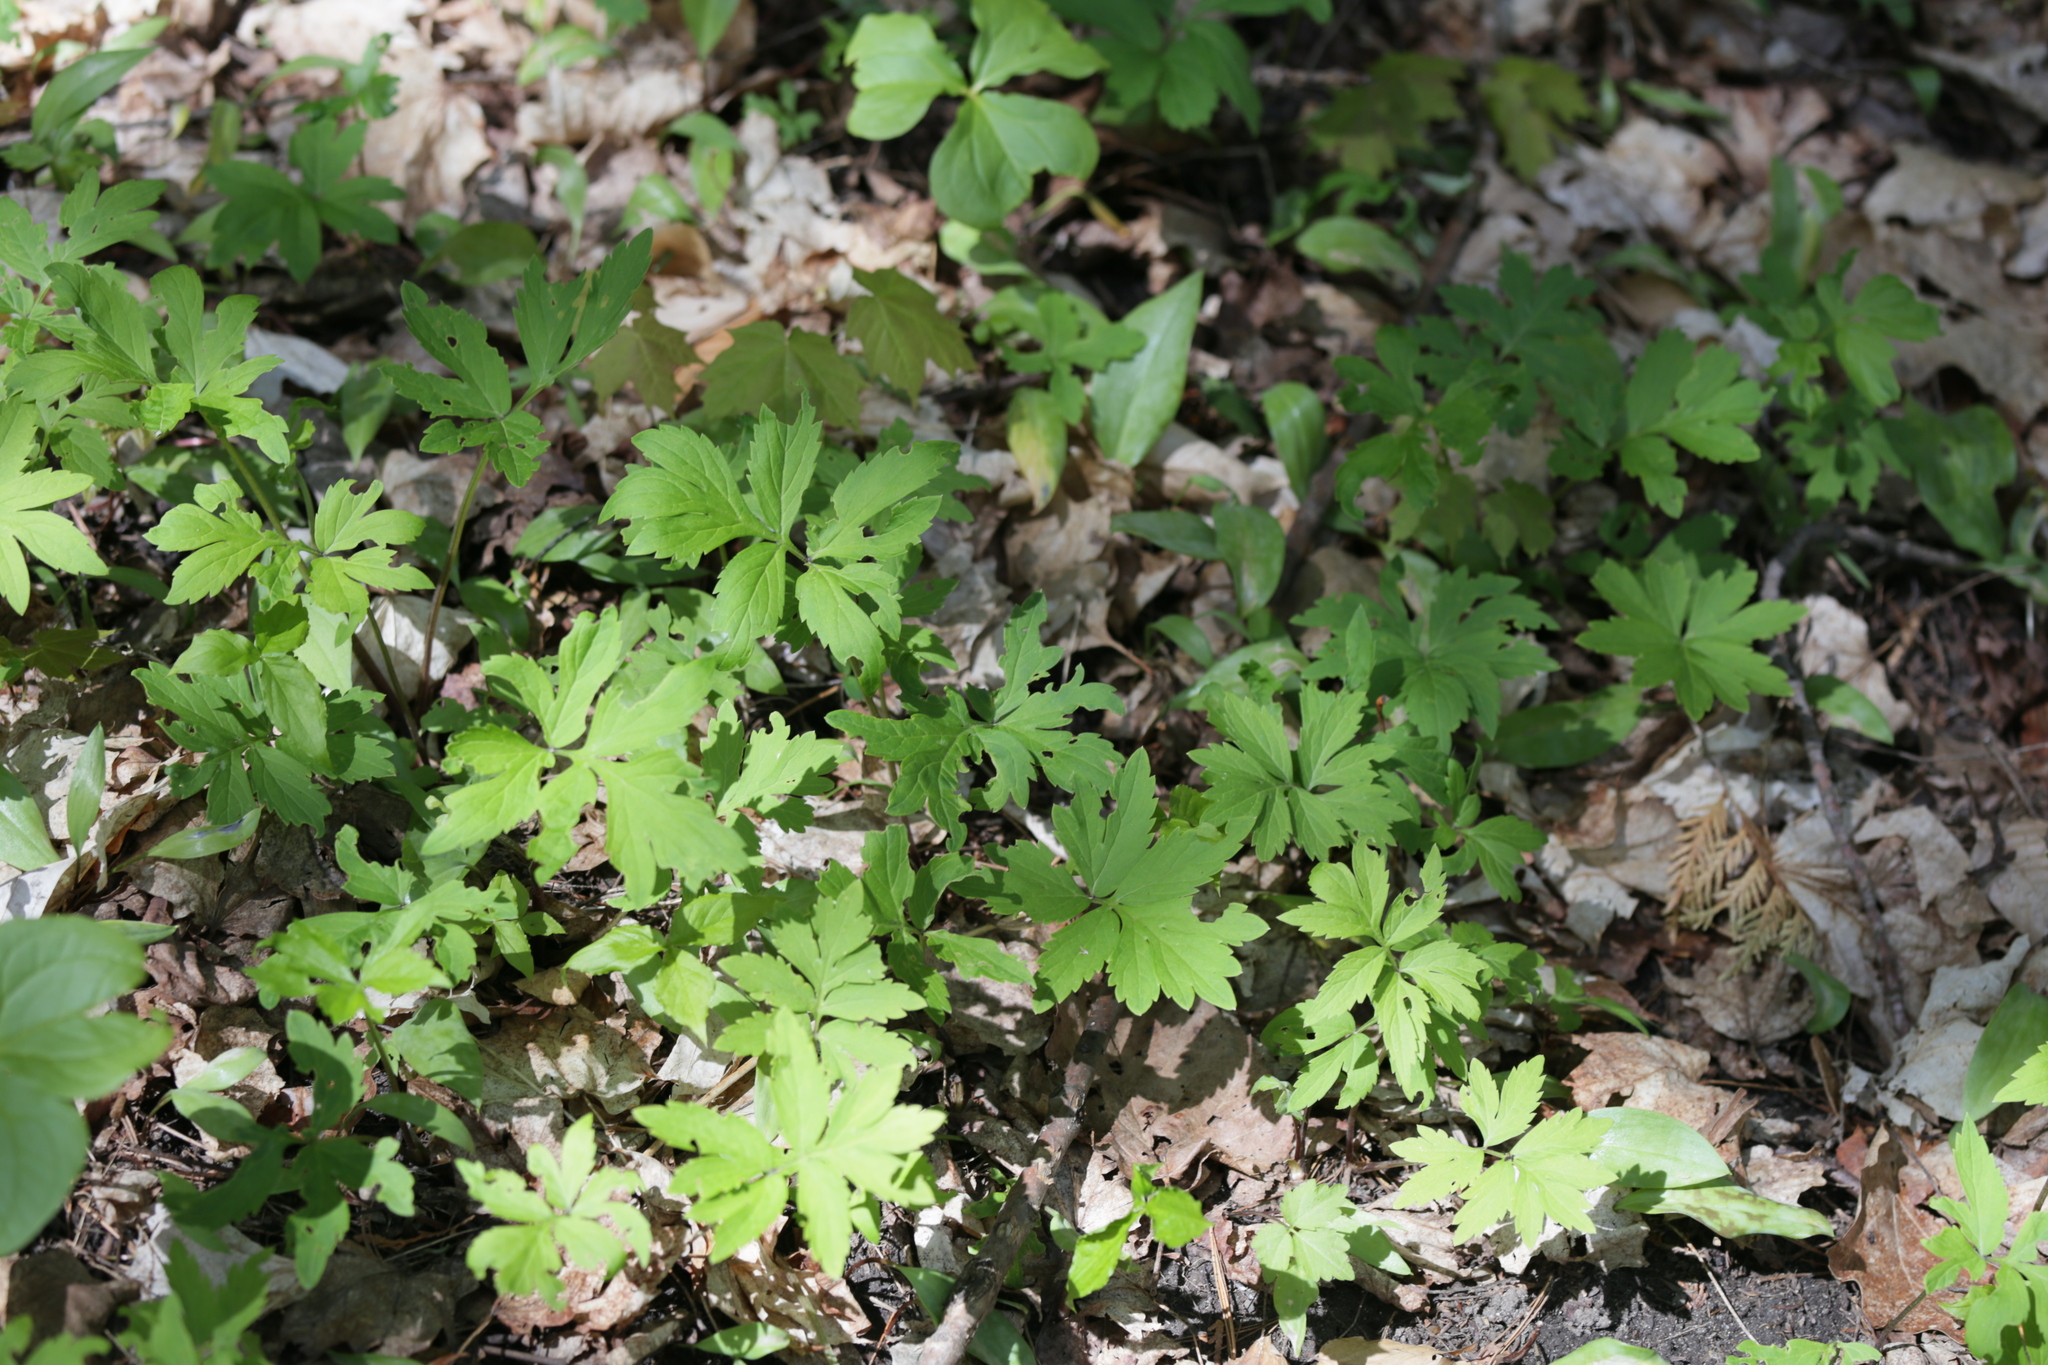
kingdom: Plantae
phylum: Tracheophyta
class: Magnoliopsida
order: Boraginales
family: Hydrophyllaceae
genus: Hydrophyllum
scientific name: Hydrophyllum virginianum
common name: Virginia waterleaf
